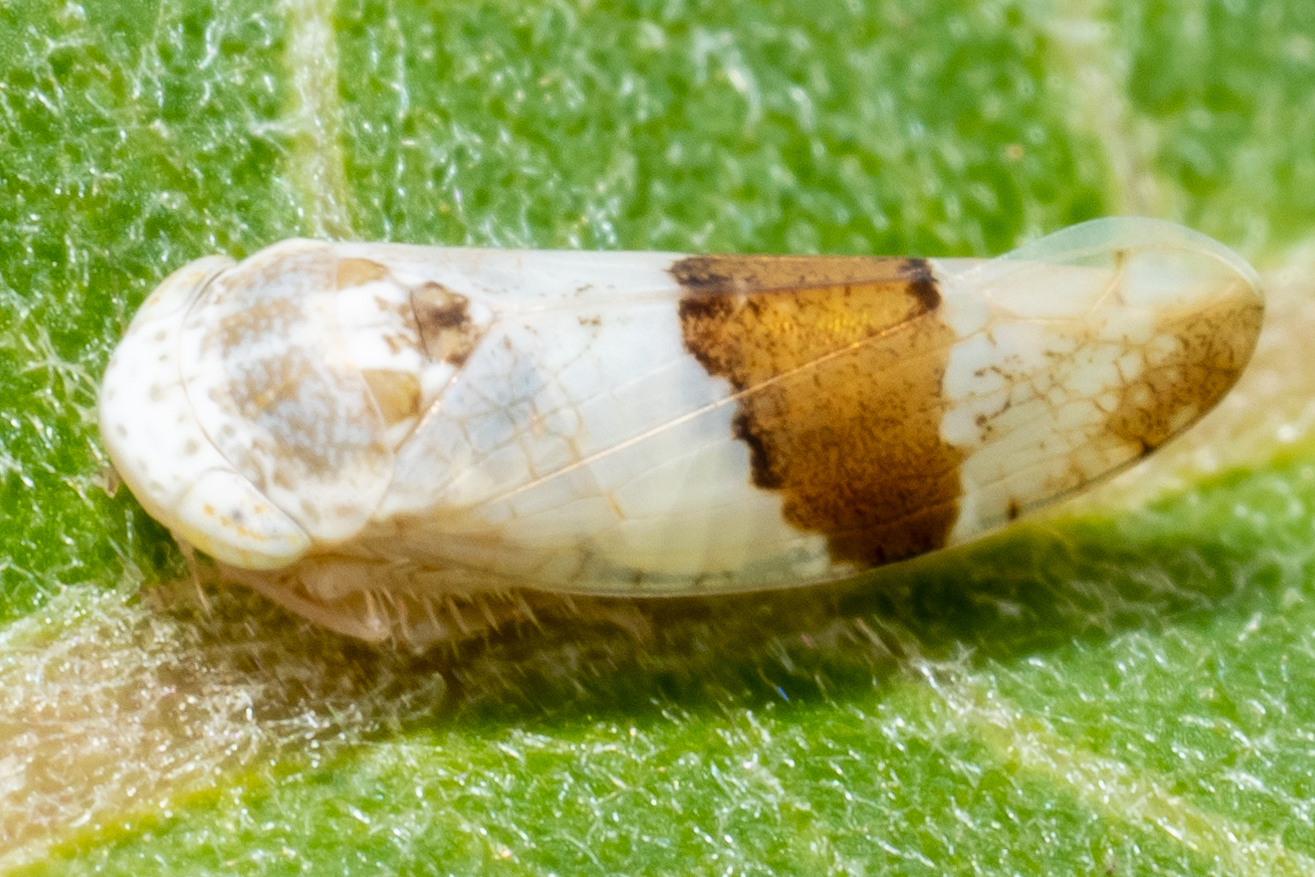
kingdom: Animalia
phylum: Arthropoda
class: Insecta
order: Hemiptera
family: Cicadellidae
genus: Norvellina
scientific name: Norvellina seminuda
